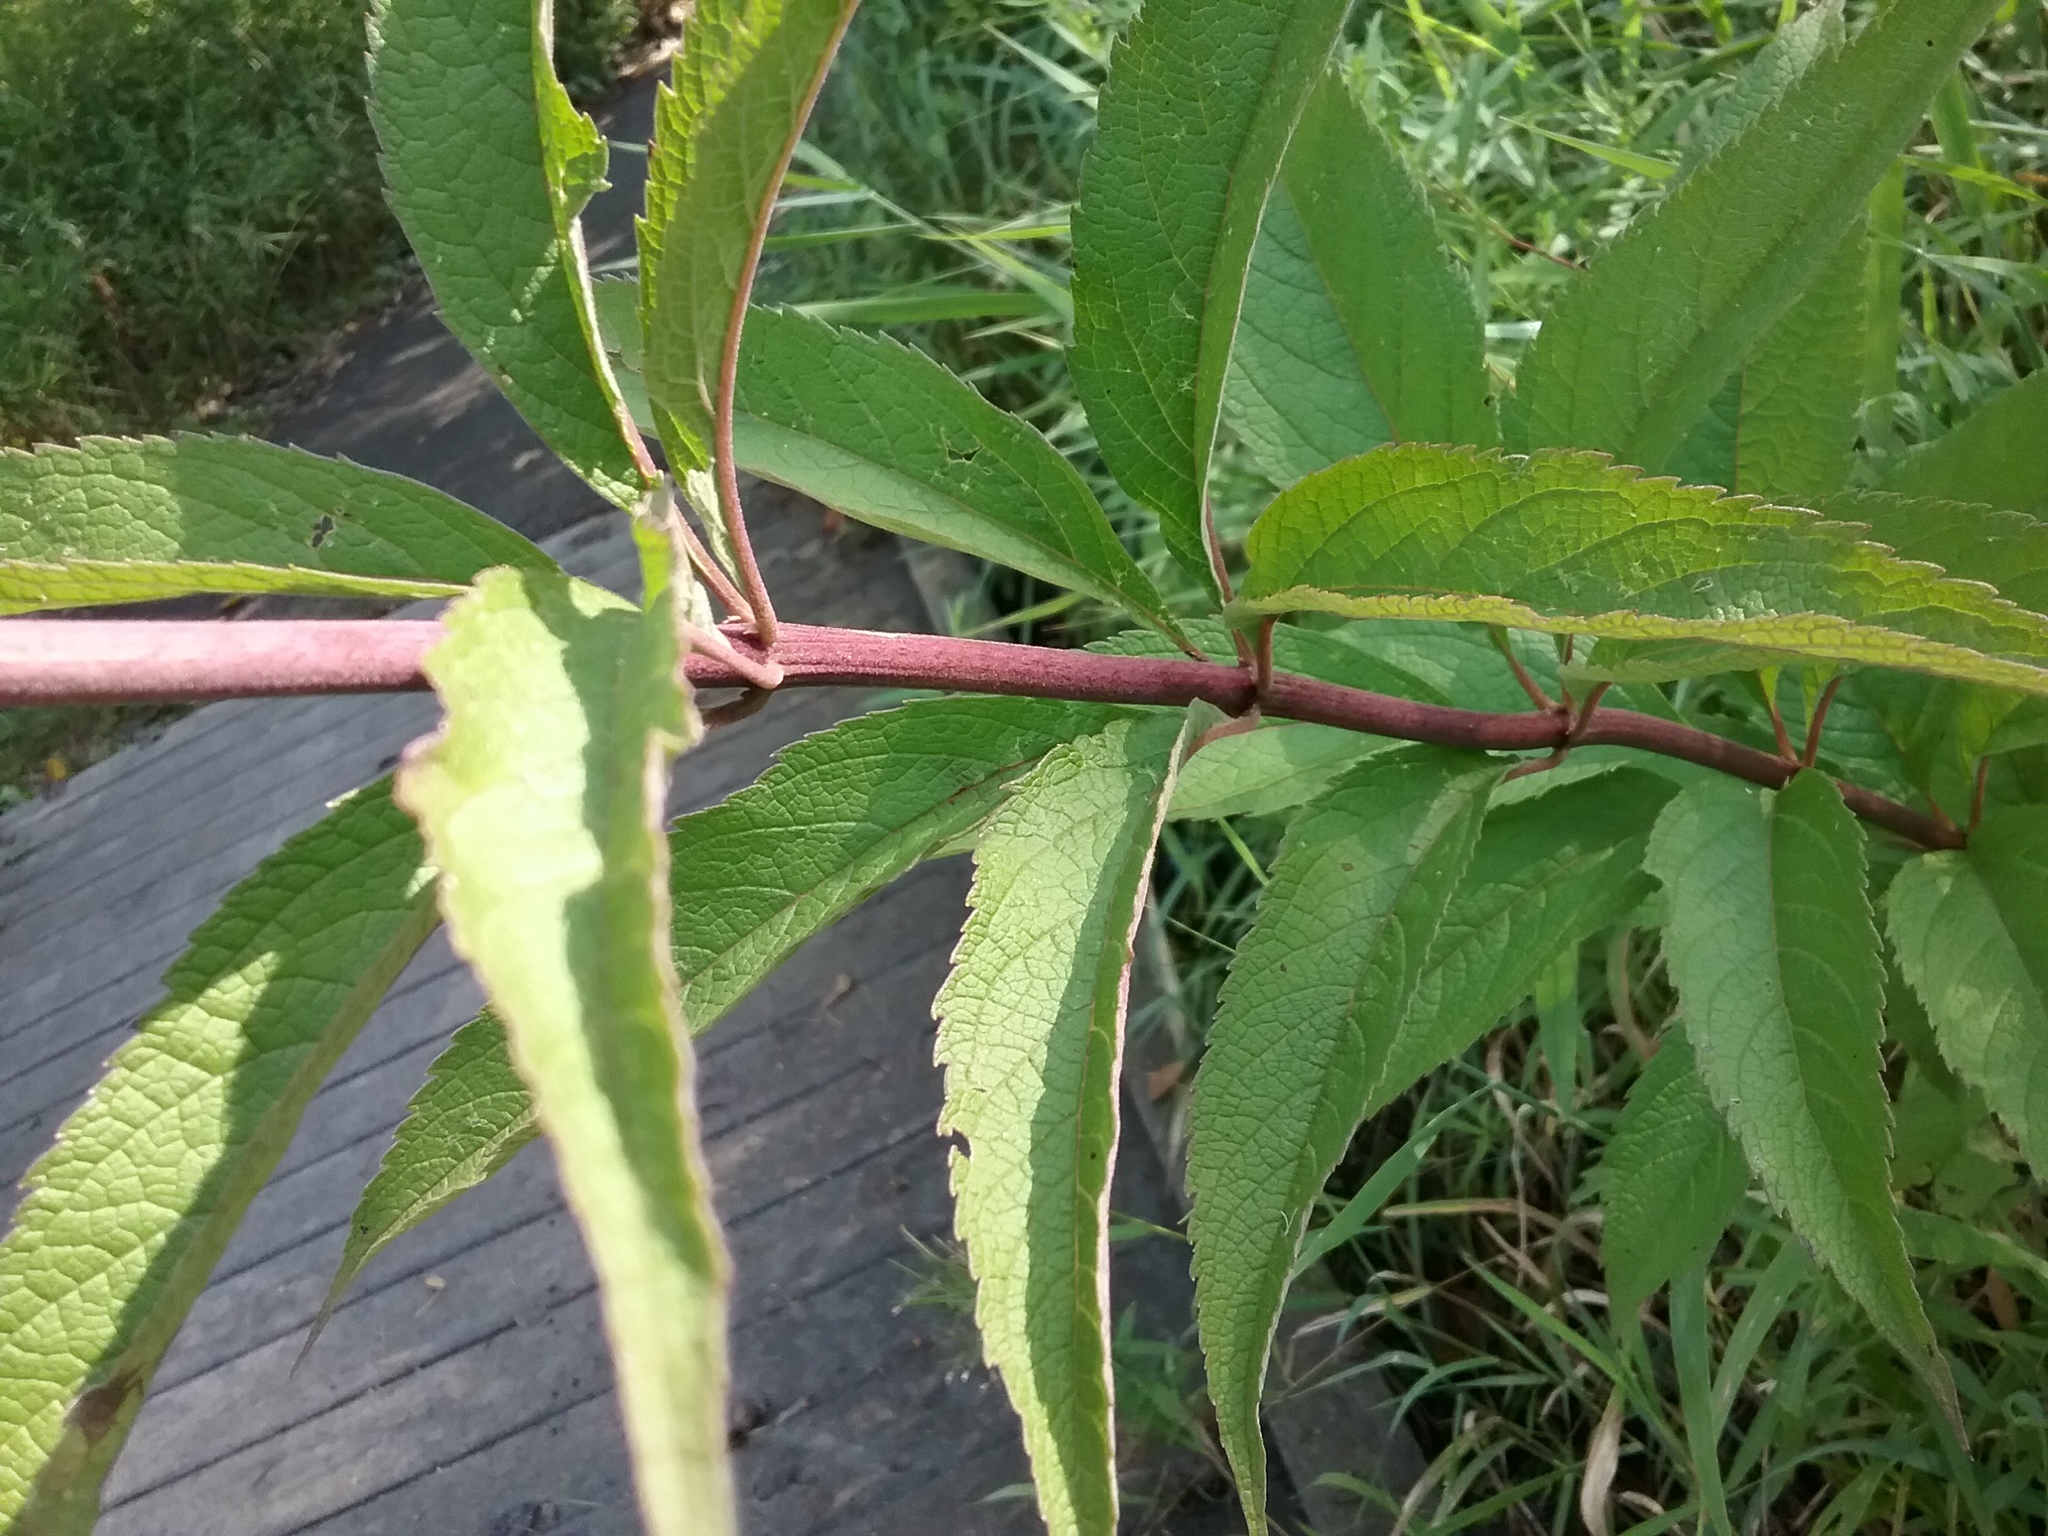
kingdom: Plantae
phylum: Tracheophyta
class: Magnoliopsida
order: Asterales
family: Asteraceae
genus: Eutrochium
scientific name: Eutrochium maculatum
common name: Spotted joe pye weed
